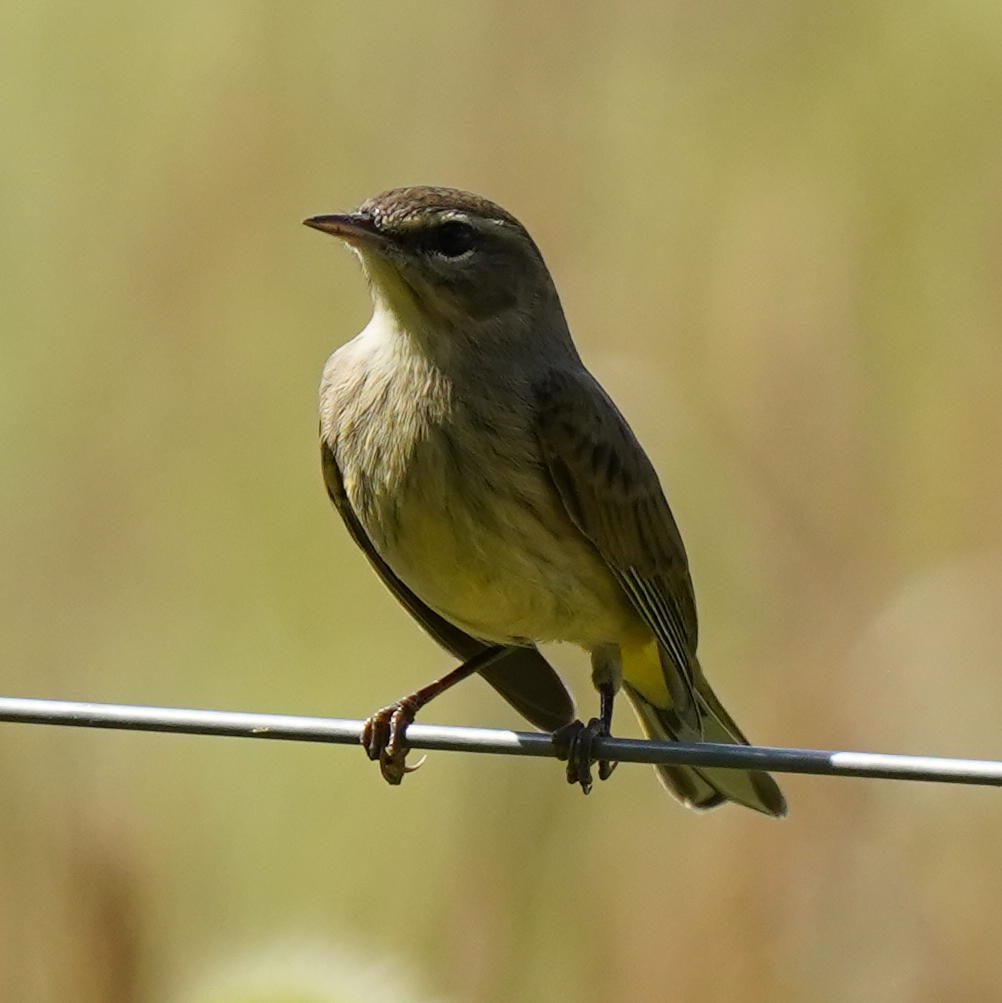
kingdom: Animalia
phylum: Chordata
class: Aves
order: Passeriformes
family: Parulidae
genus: Setophaga
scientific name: Setophaga palmarum
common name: Palm warbler
